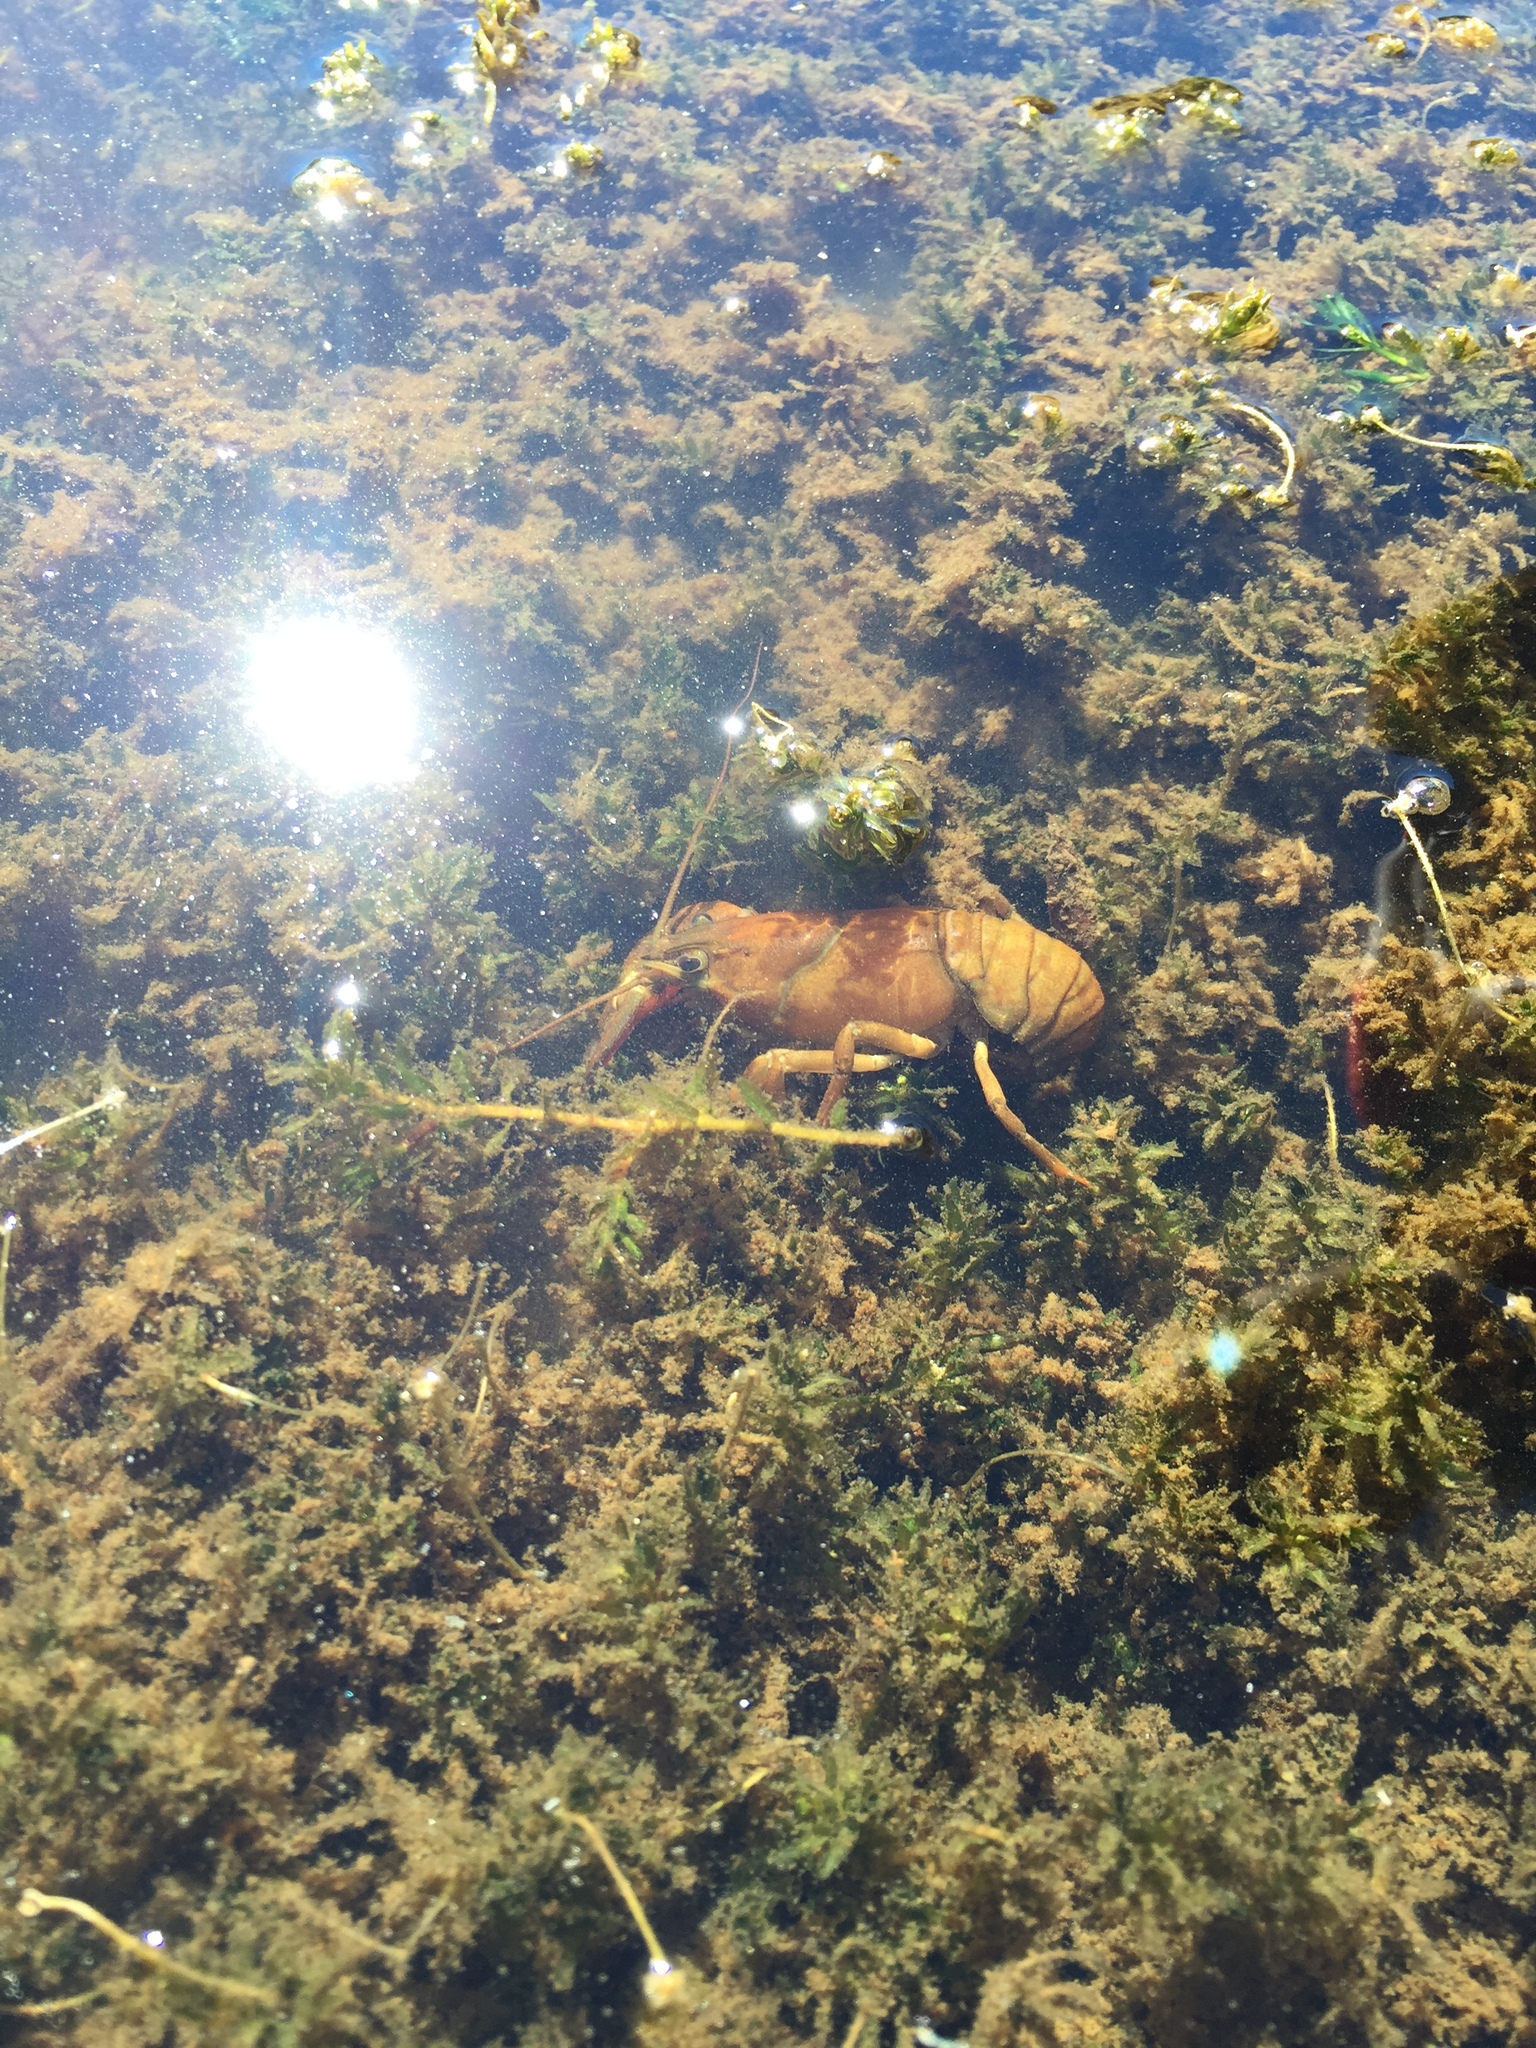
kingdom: Animalia
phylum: Arthropoda
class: Malacostraca
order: Decapoda
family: Astacidae
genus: Pacifastacus
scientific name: Pacifastacus leniusculus
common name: Signal crayfish
